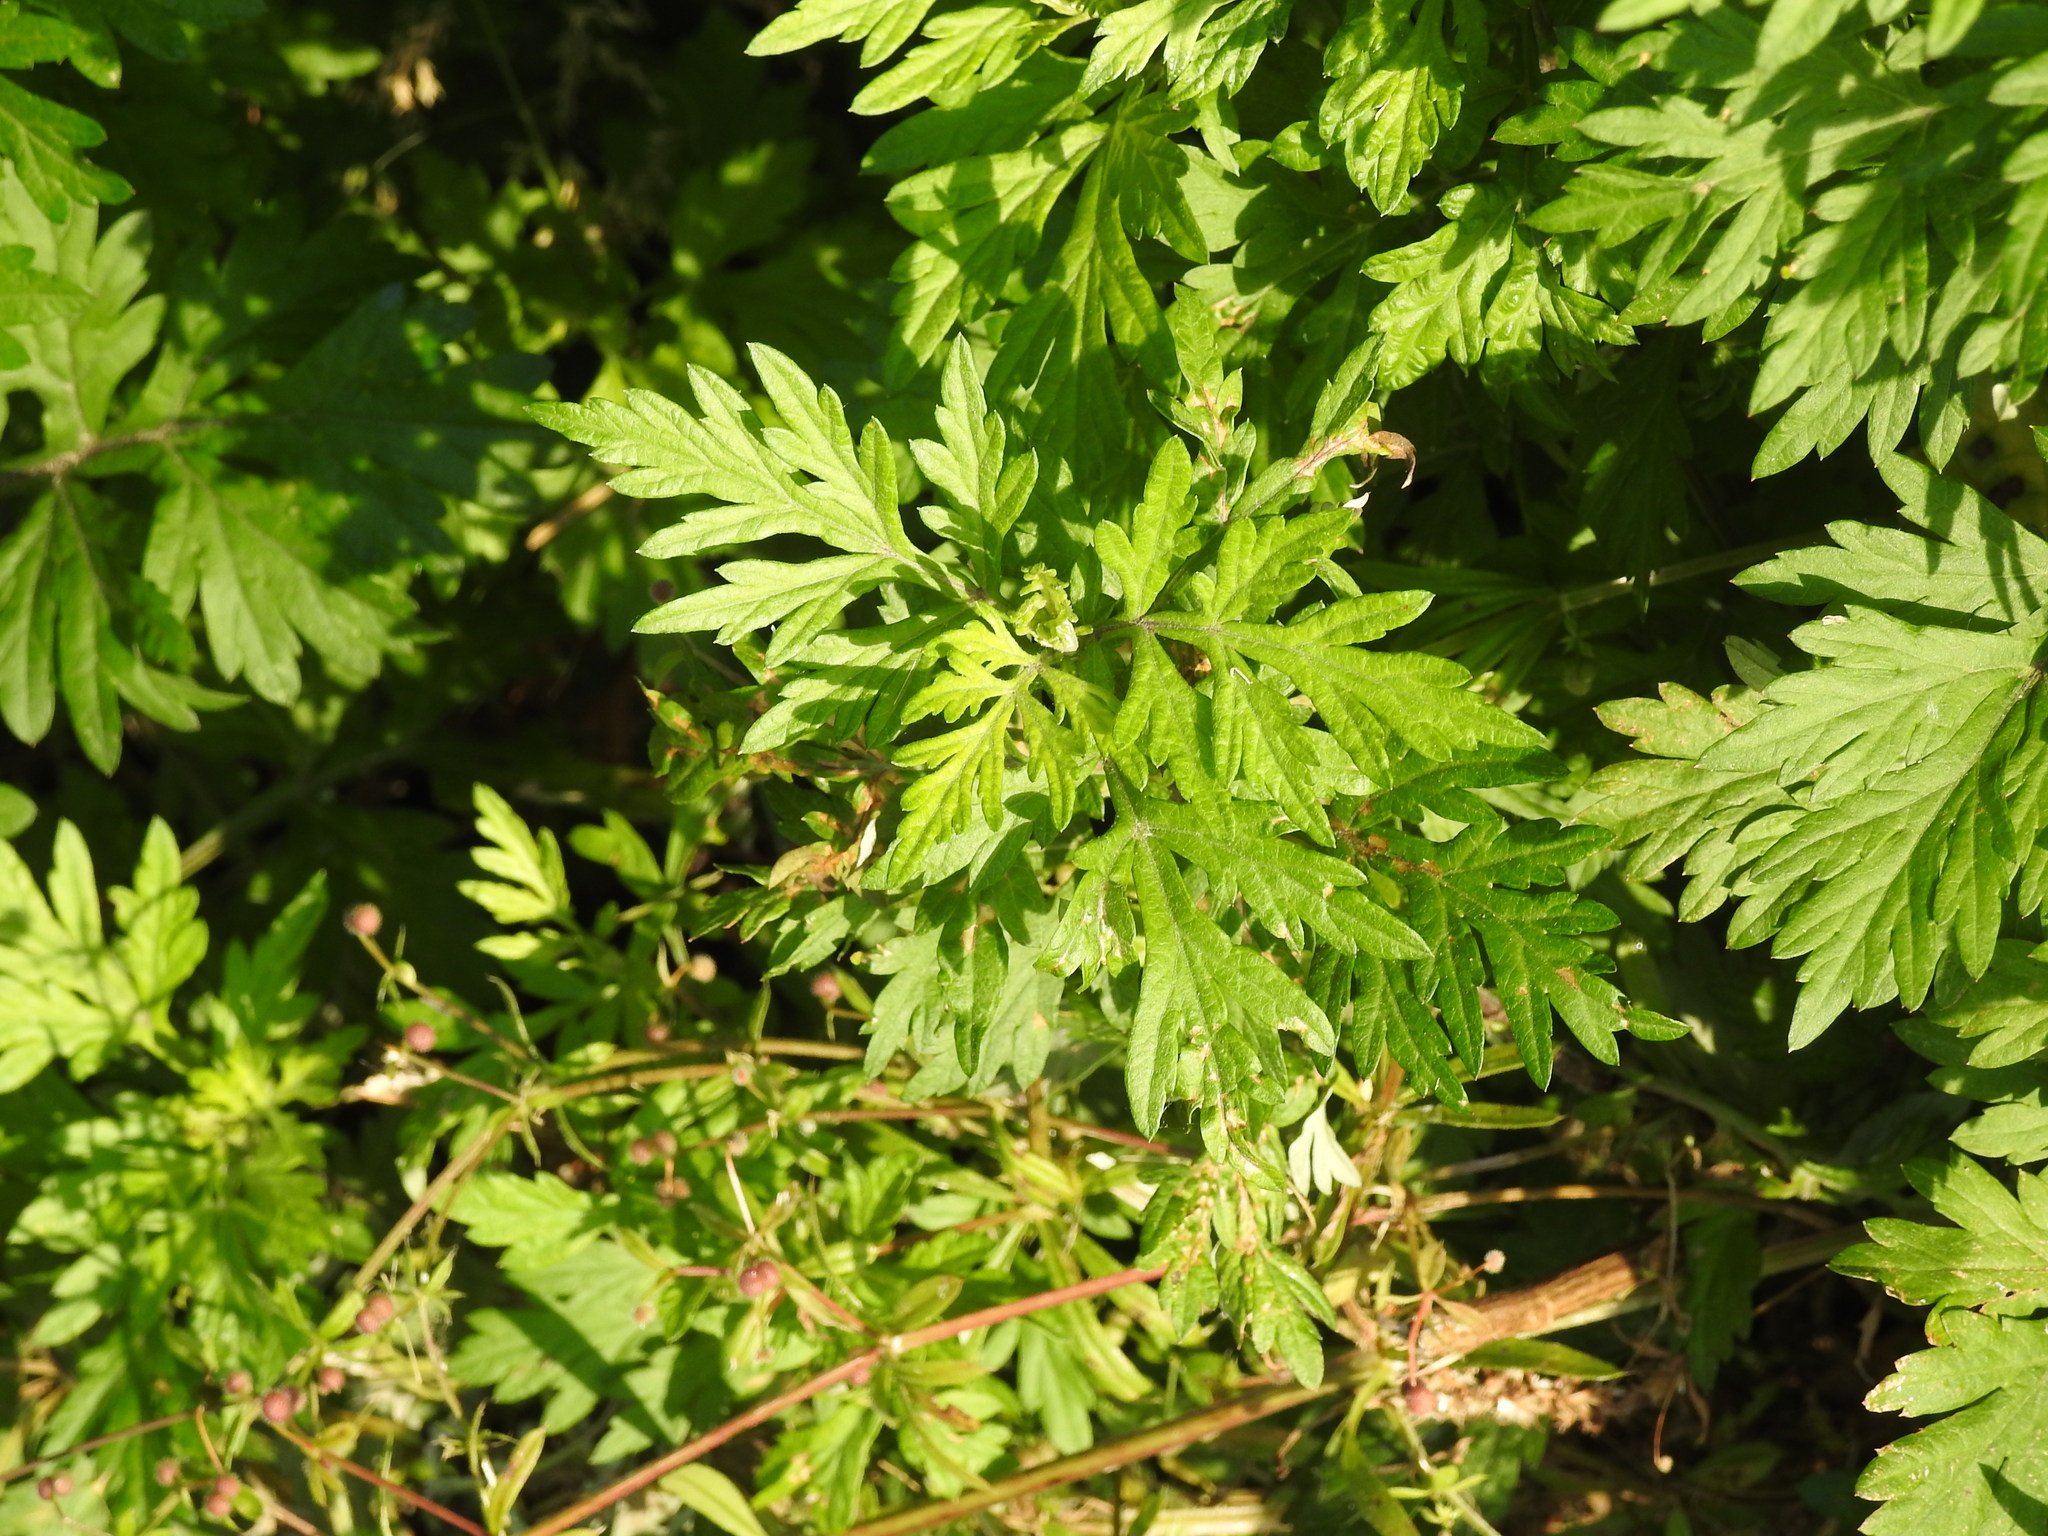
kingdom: Plantae
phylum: Tracheophyta
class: Magnoliopsida
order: Asterales
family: Asteraceae
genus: Artemisia
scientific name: Artemisia vulgaris
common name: Mugwort
